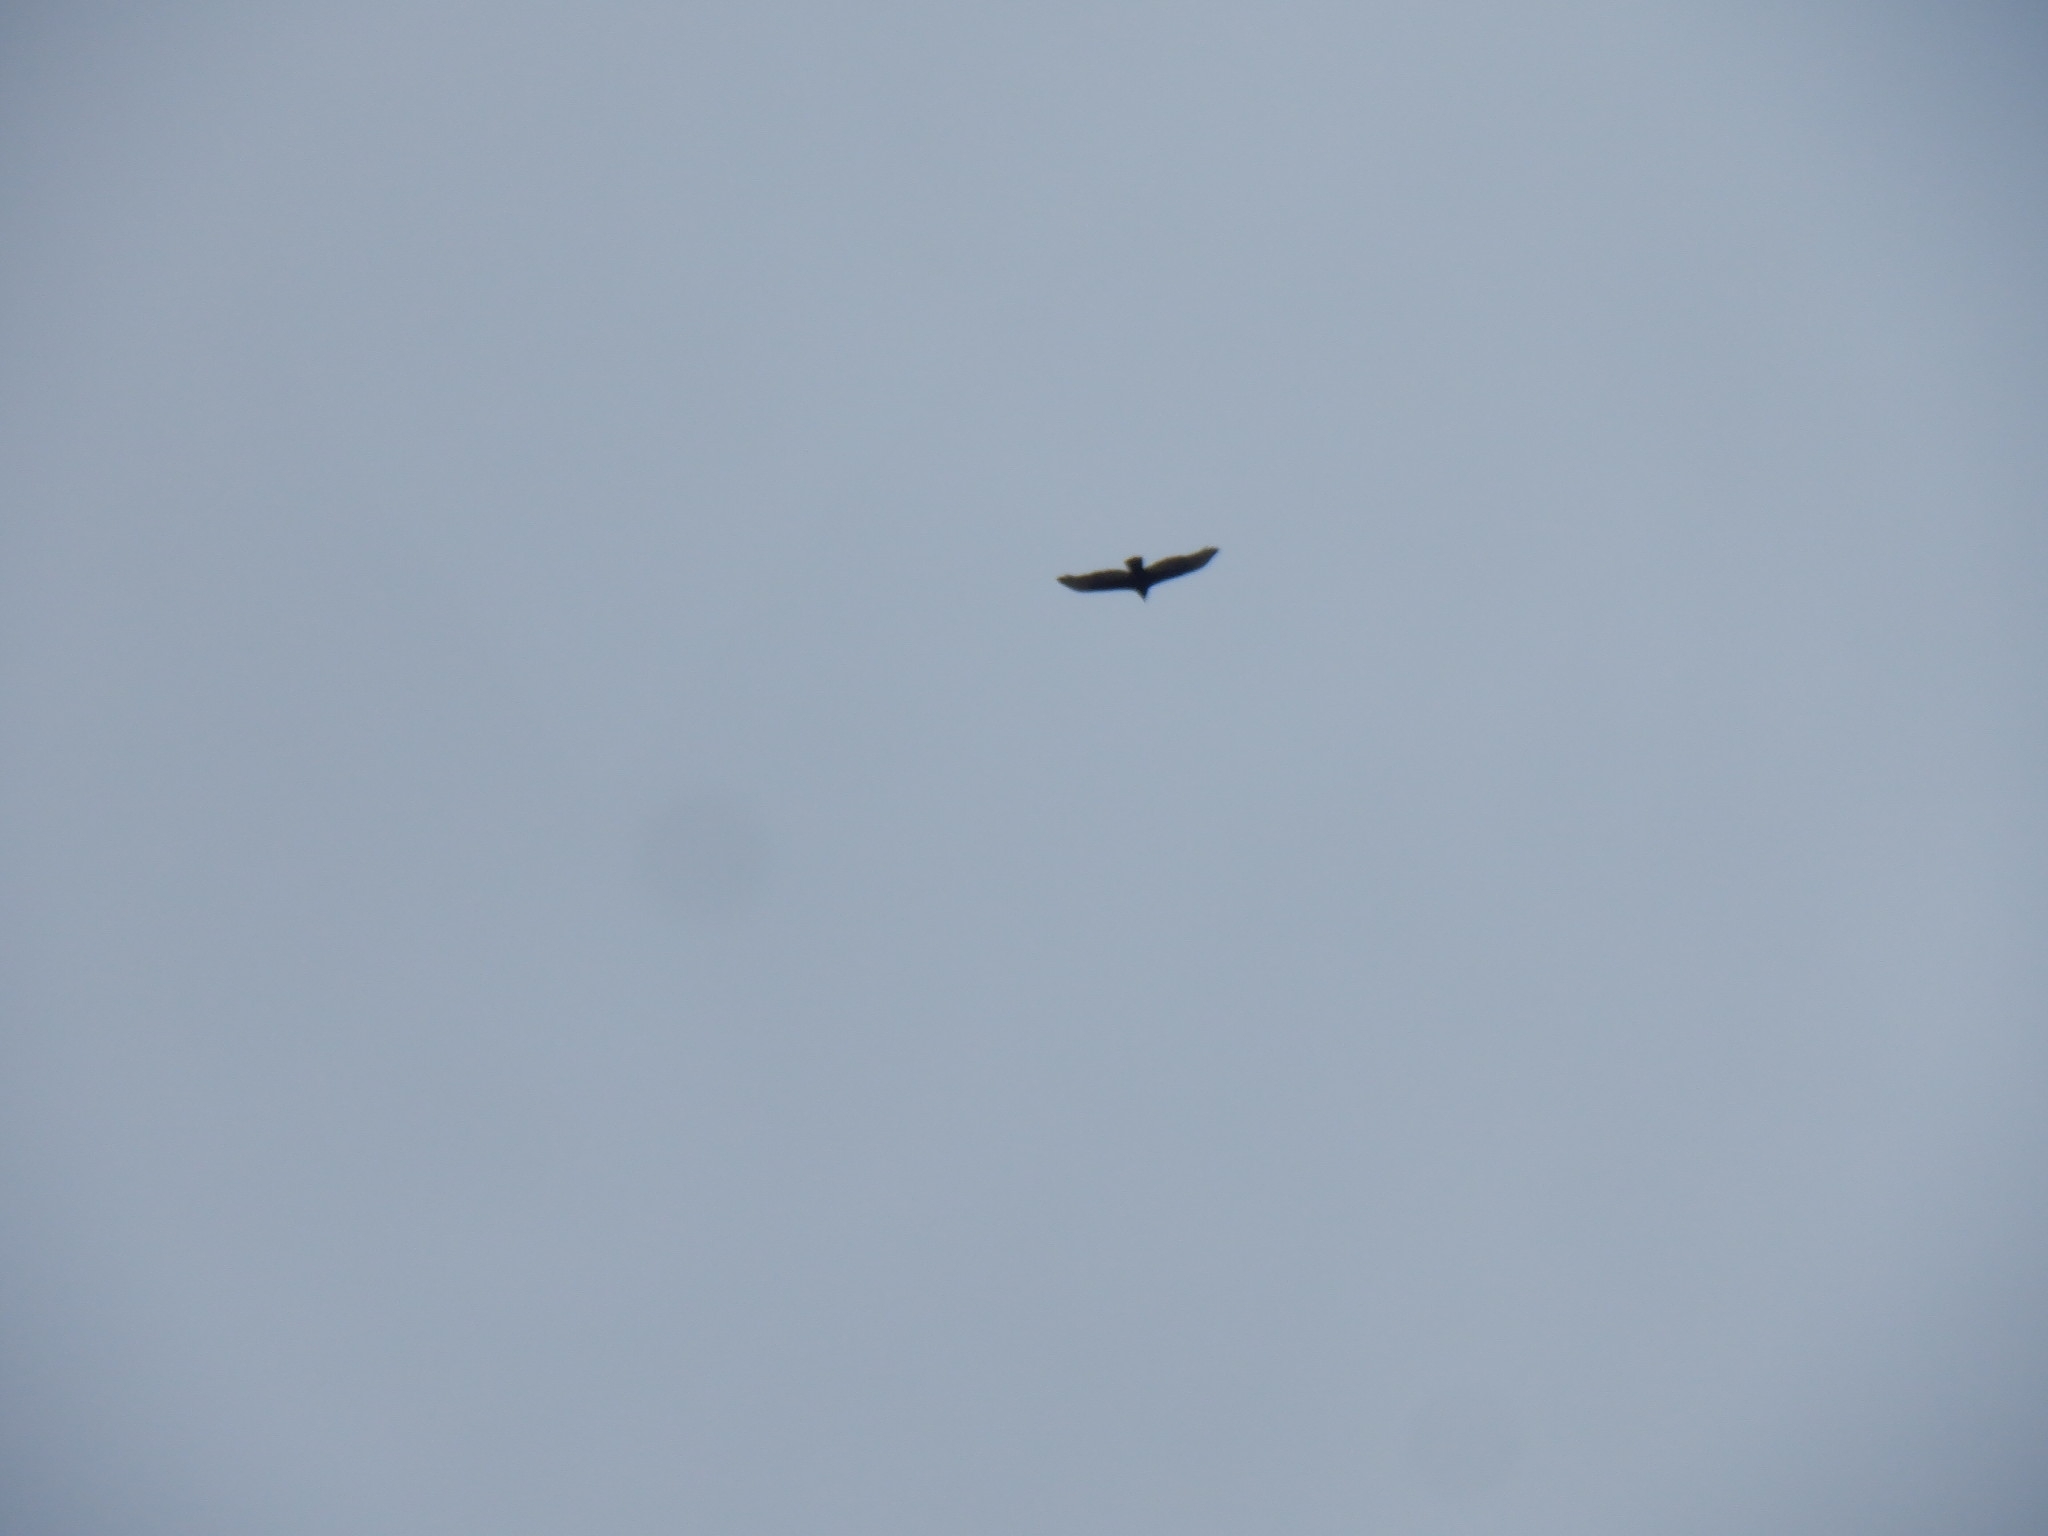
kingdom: Animalia
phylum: Chordata
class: Aves
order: Accipitriformes
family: Cathartidae
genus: Cathartes
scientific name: Cathartes aura
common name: Turkey vulture
